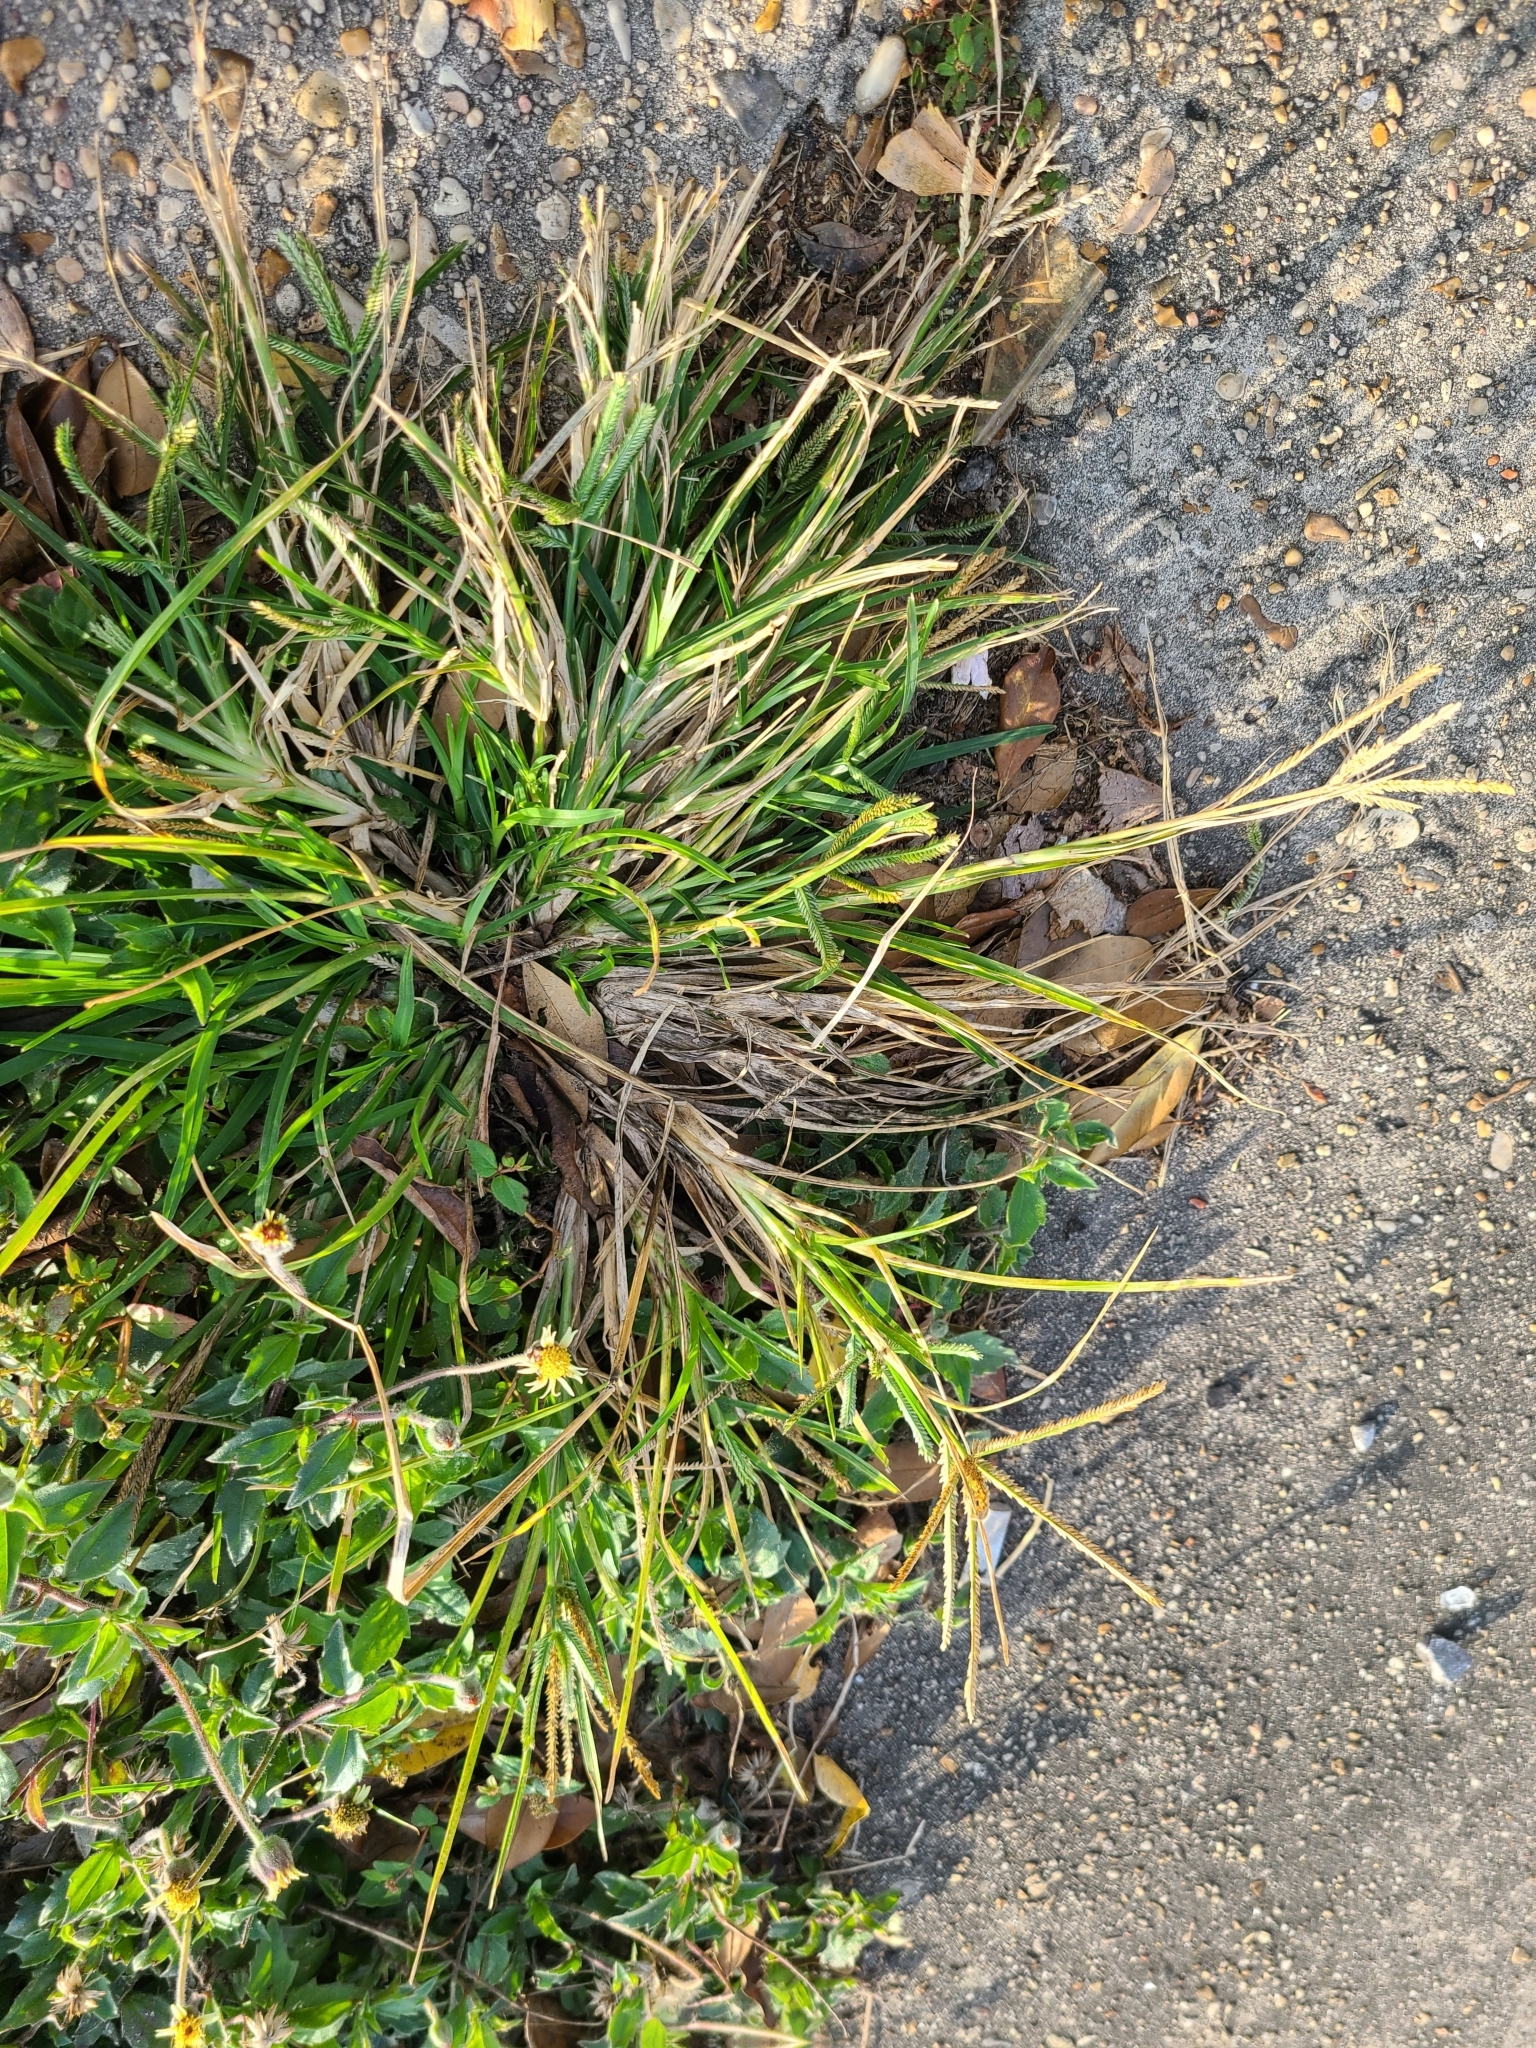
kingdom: Plantae
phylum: Tracheophyta
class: Liliopsida
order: Poales
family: Poaceae
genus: Eleusine
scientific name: Eleusine indica
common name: Yard-grass
